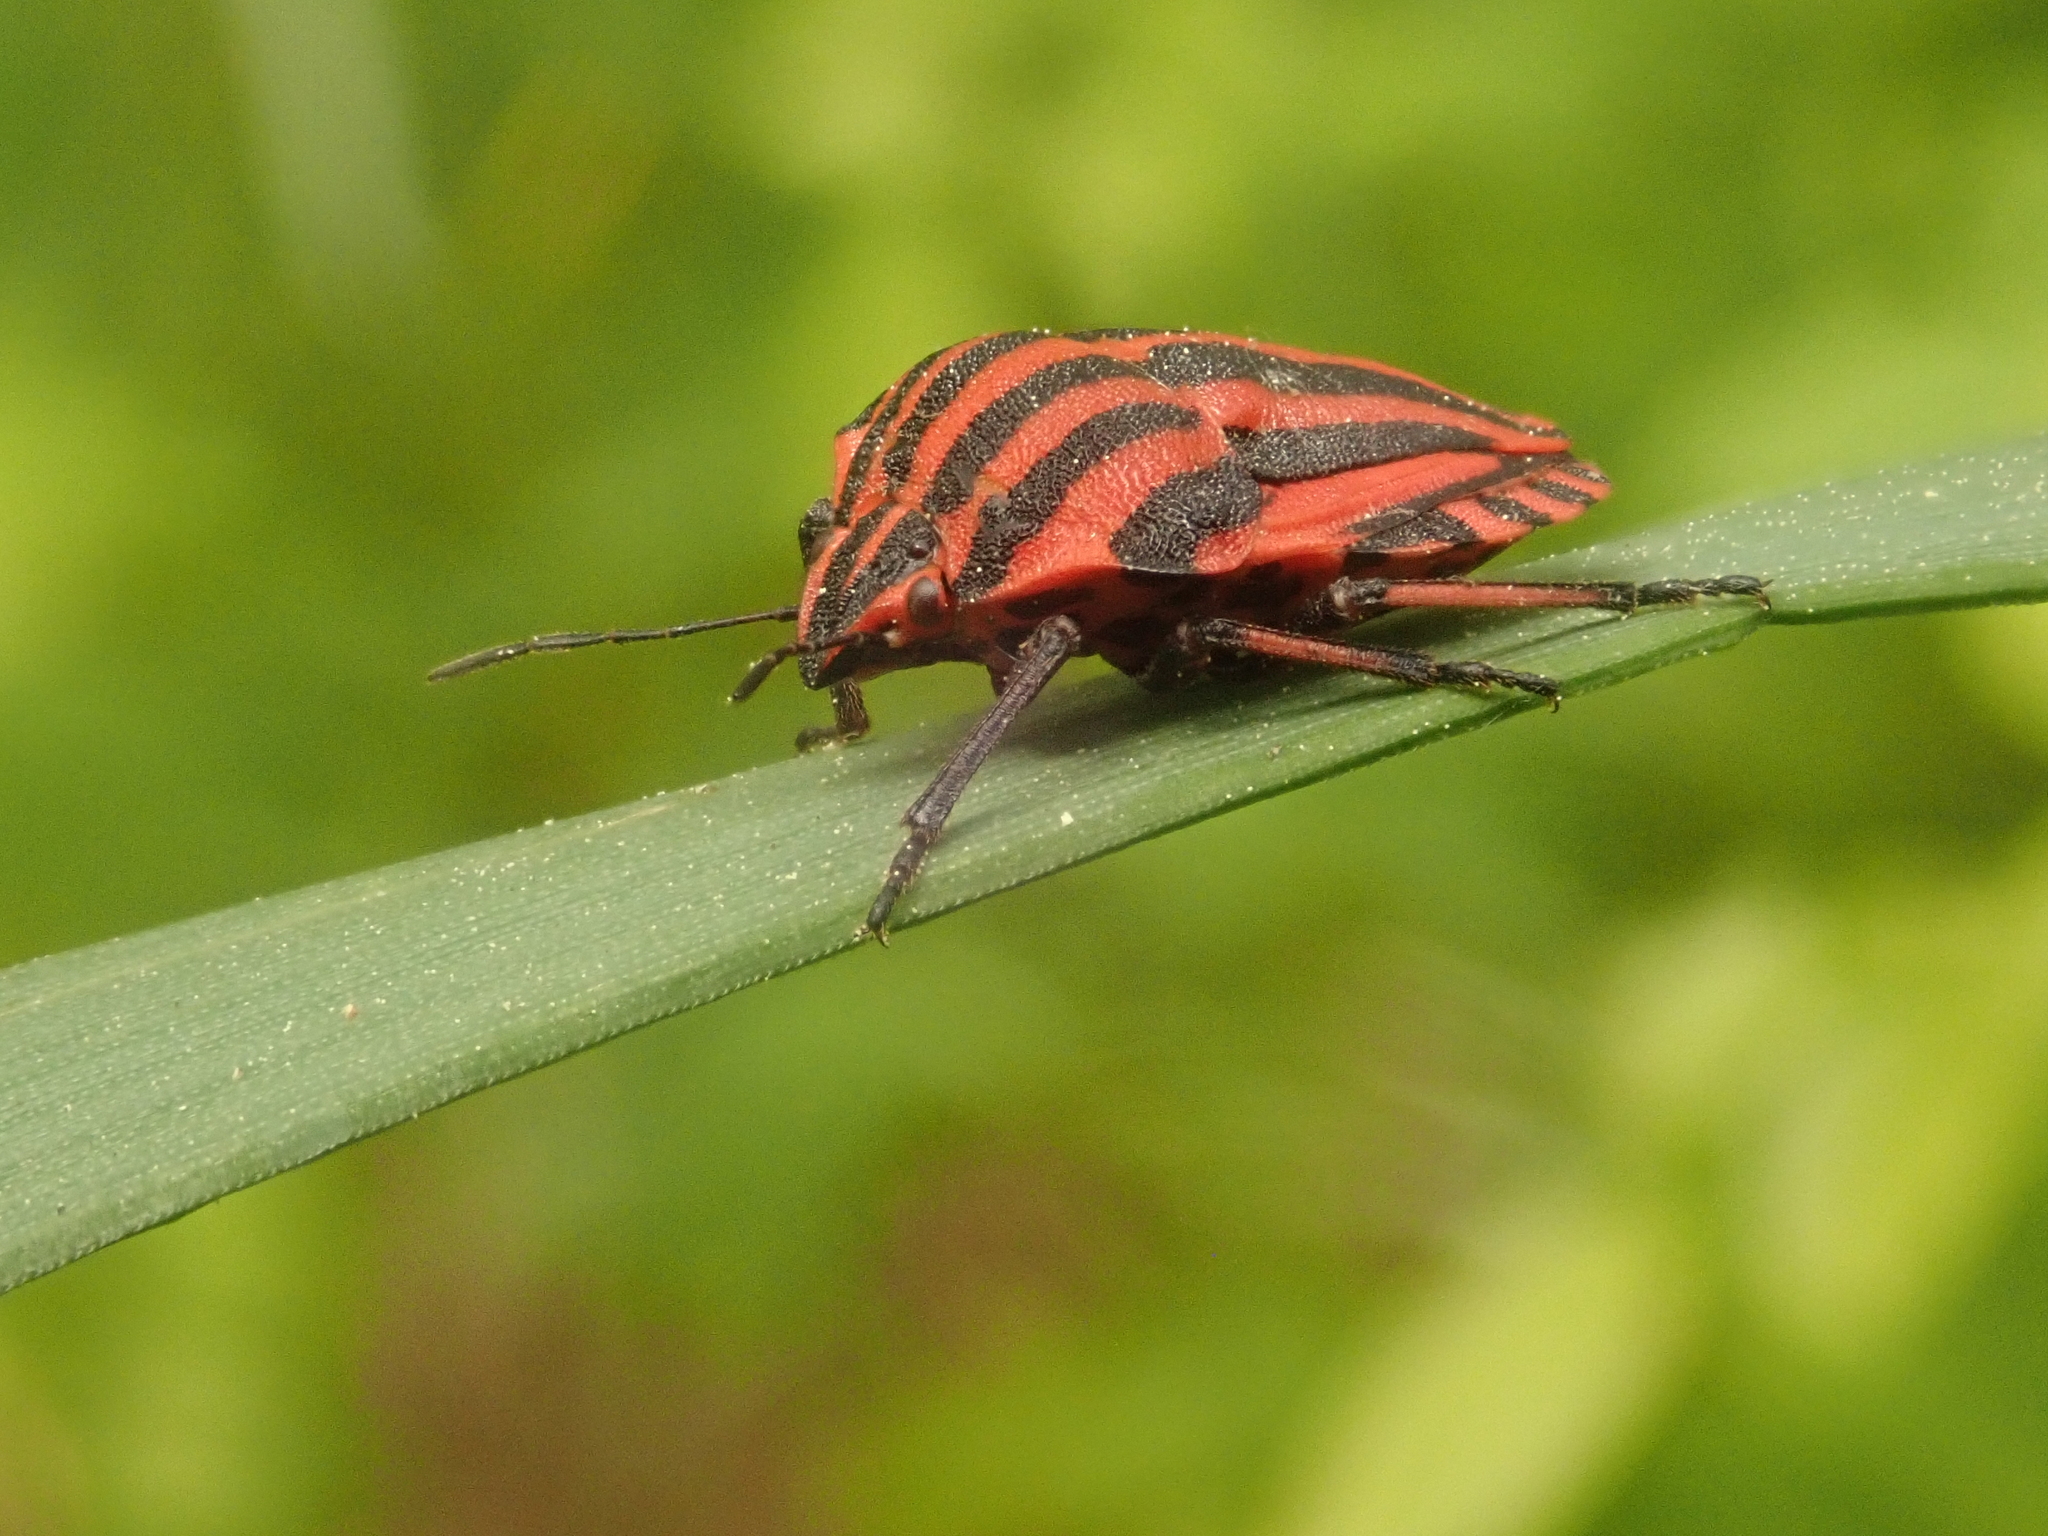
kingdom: Animalia
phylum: Arthropoda
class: Insecta
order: Hemiptera
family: Pentatomidae
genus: Graphosoma
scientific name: Graphosoma italicum
